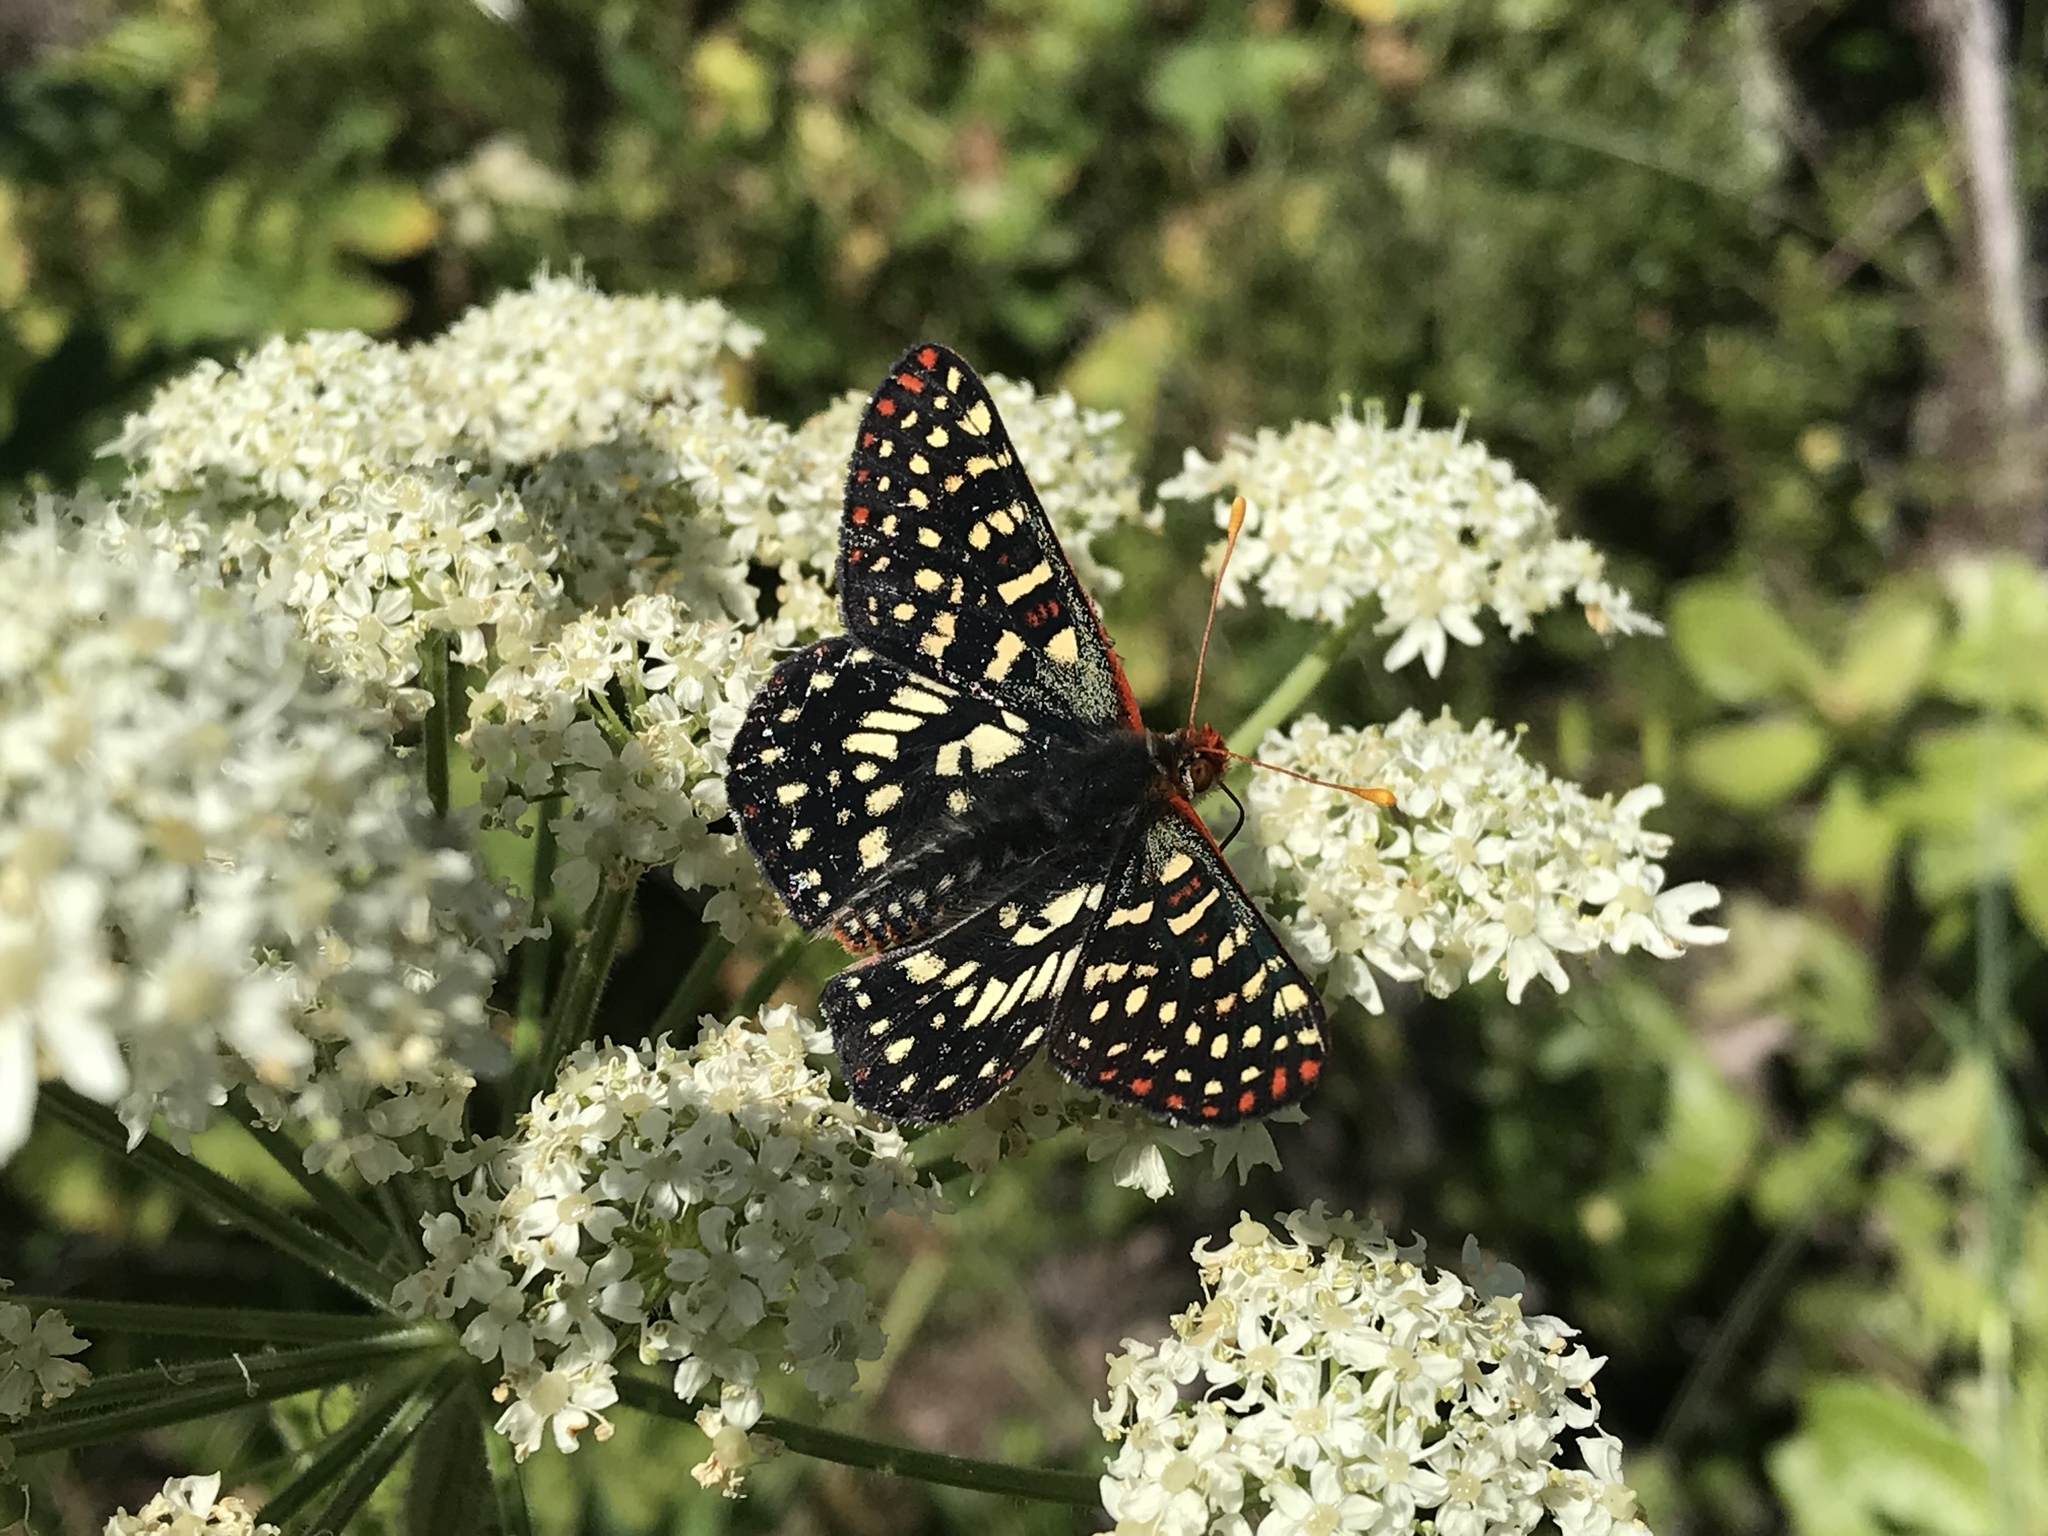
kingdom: Animalia
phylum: Arthropoda
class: Insecta
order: Lepidoptera
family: Nymphalidae
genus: Occidryas
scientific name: Occidryas chalcedona
